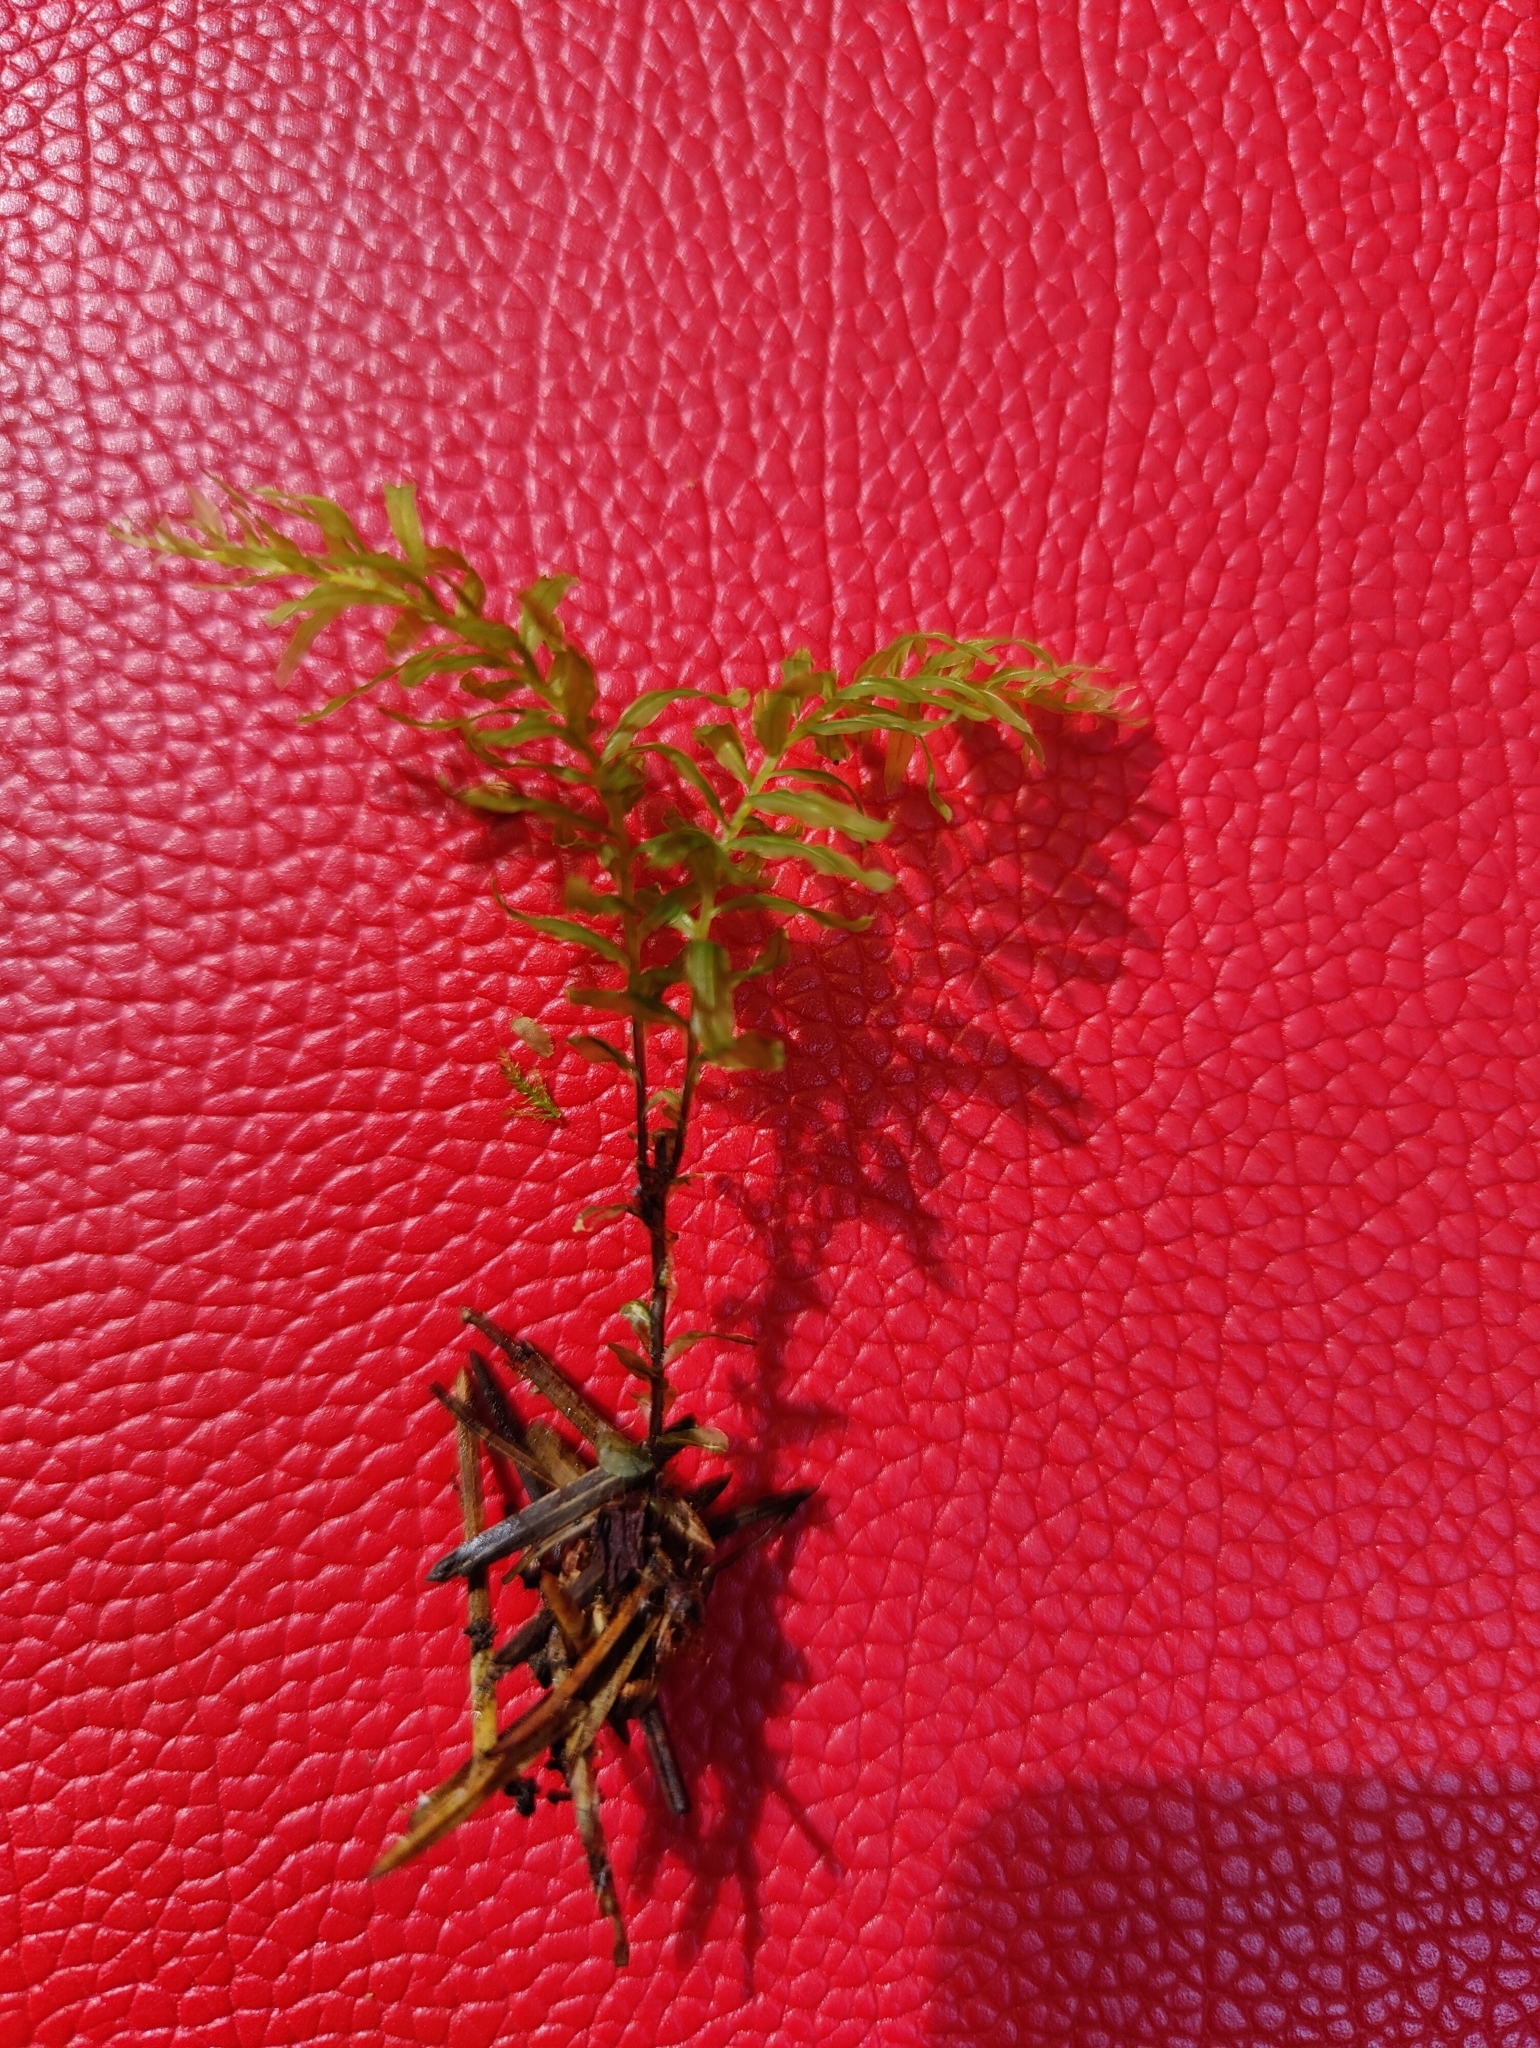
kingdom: Plantae
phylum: Bryophyta
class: Bryopsida
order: Bryales
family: Mniaceae
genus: Plagiomnium
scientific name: Plagiomnium undulatum
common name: Hart's-tongue thyme-moss
